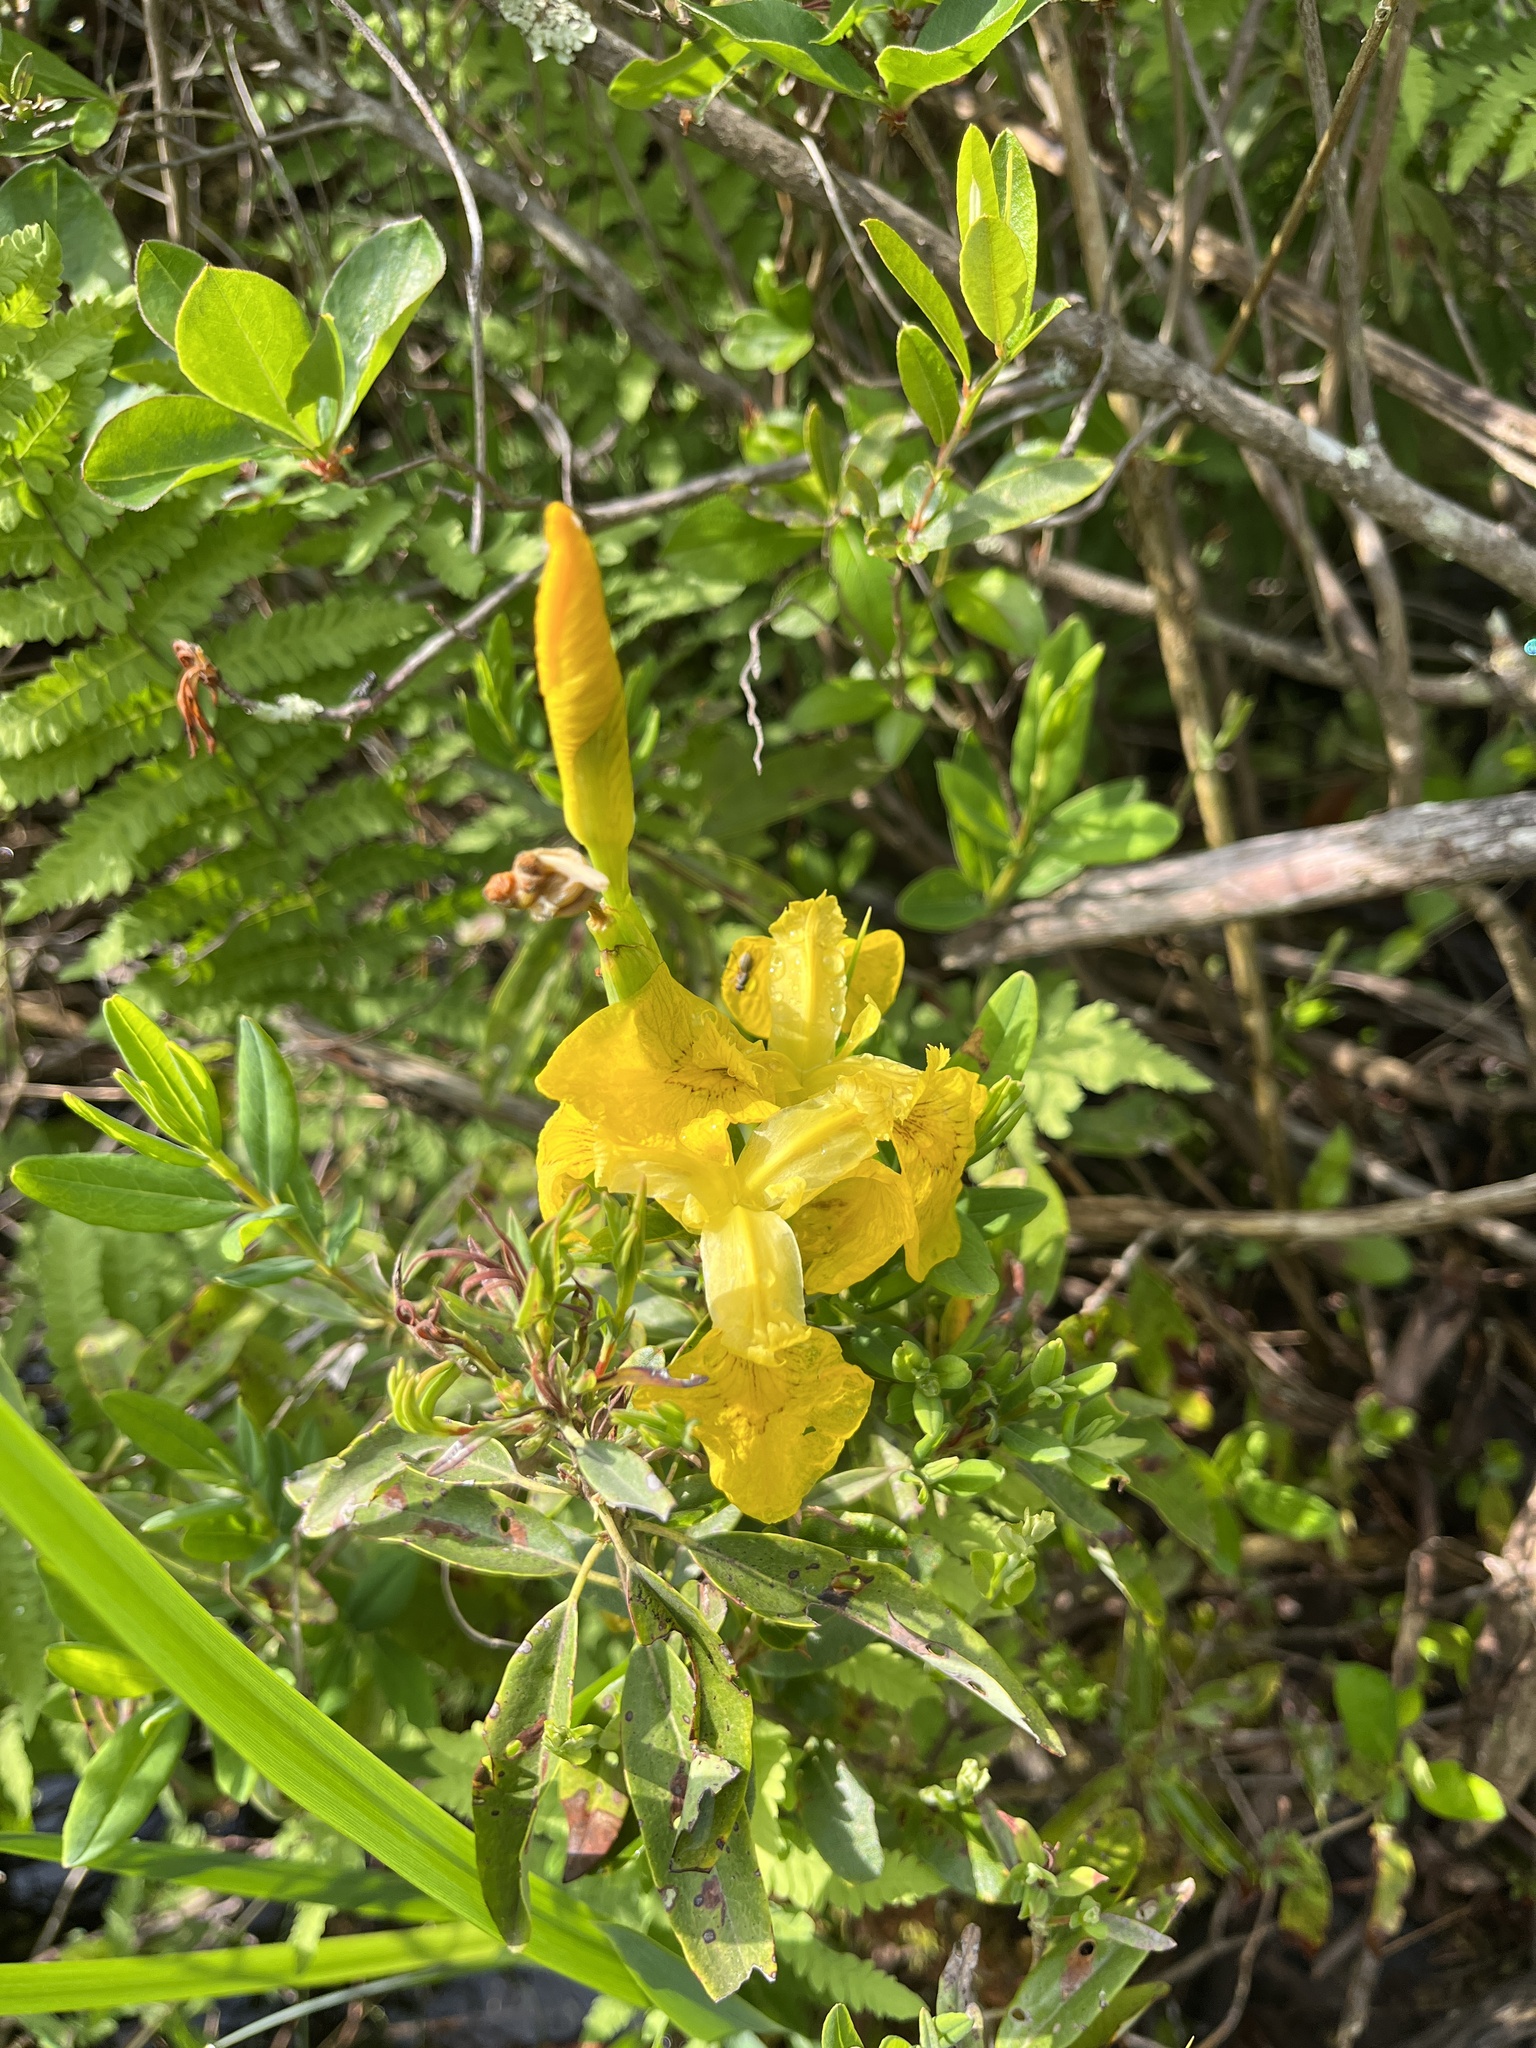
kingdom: Plantae
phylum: Tracheophyta
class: Liliopsida
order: Asparagales
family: Iridaceae
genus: Iris
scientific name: Iris pseudacorus
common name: Yellow flag
